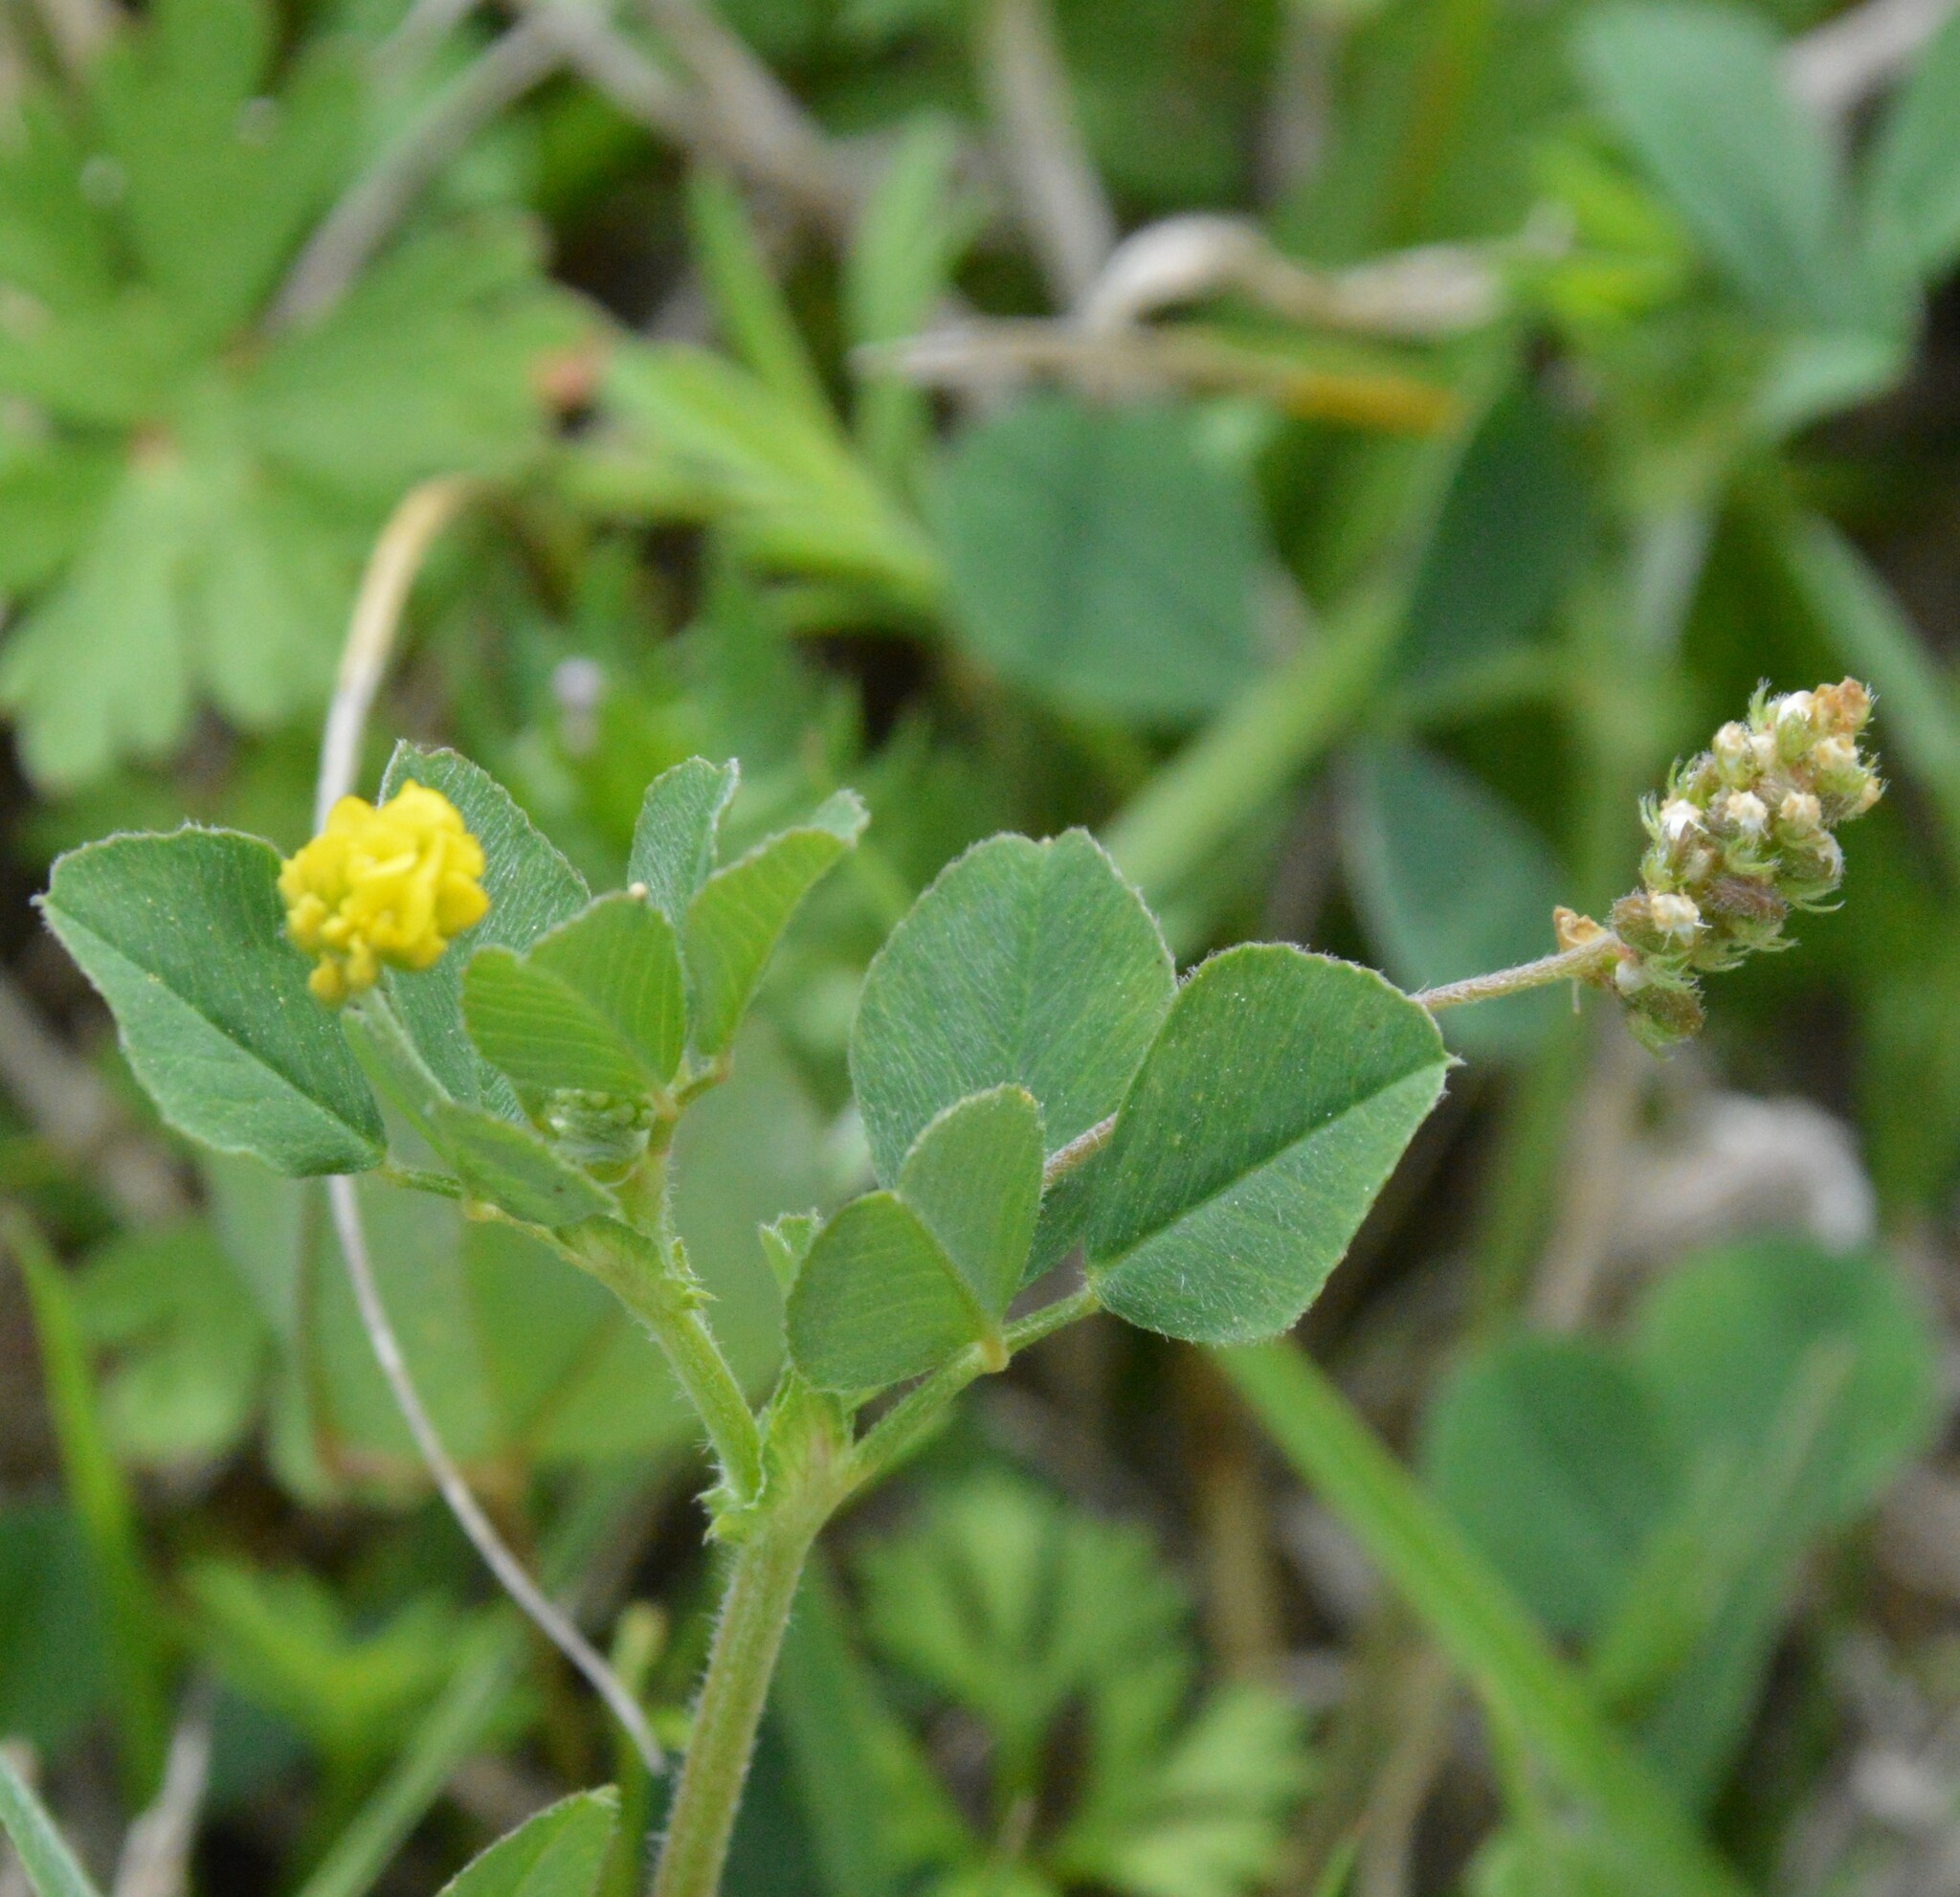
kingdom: Plantae
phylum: Tracheophyta
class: Magnoliopsida
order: Fabales
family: Fabaceae
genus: Medicago
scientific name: Medicago lupulina
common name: Black medick
